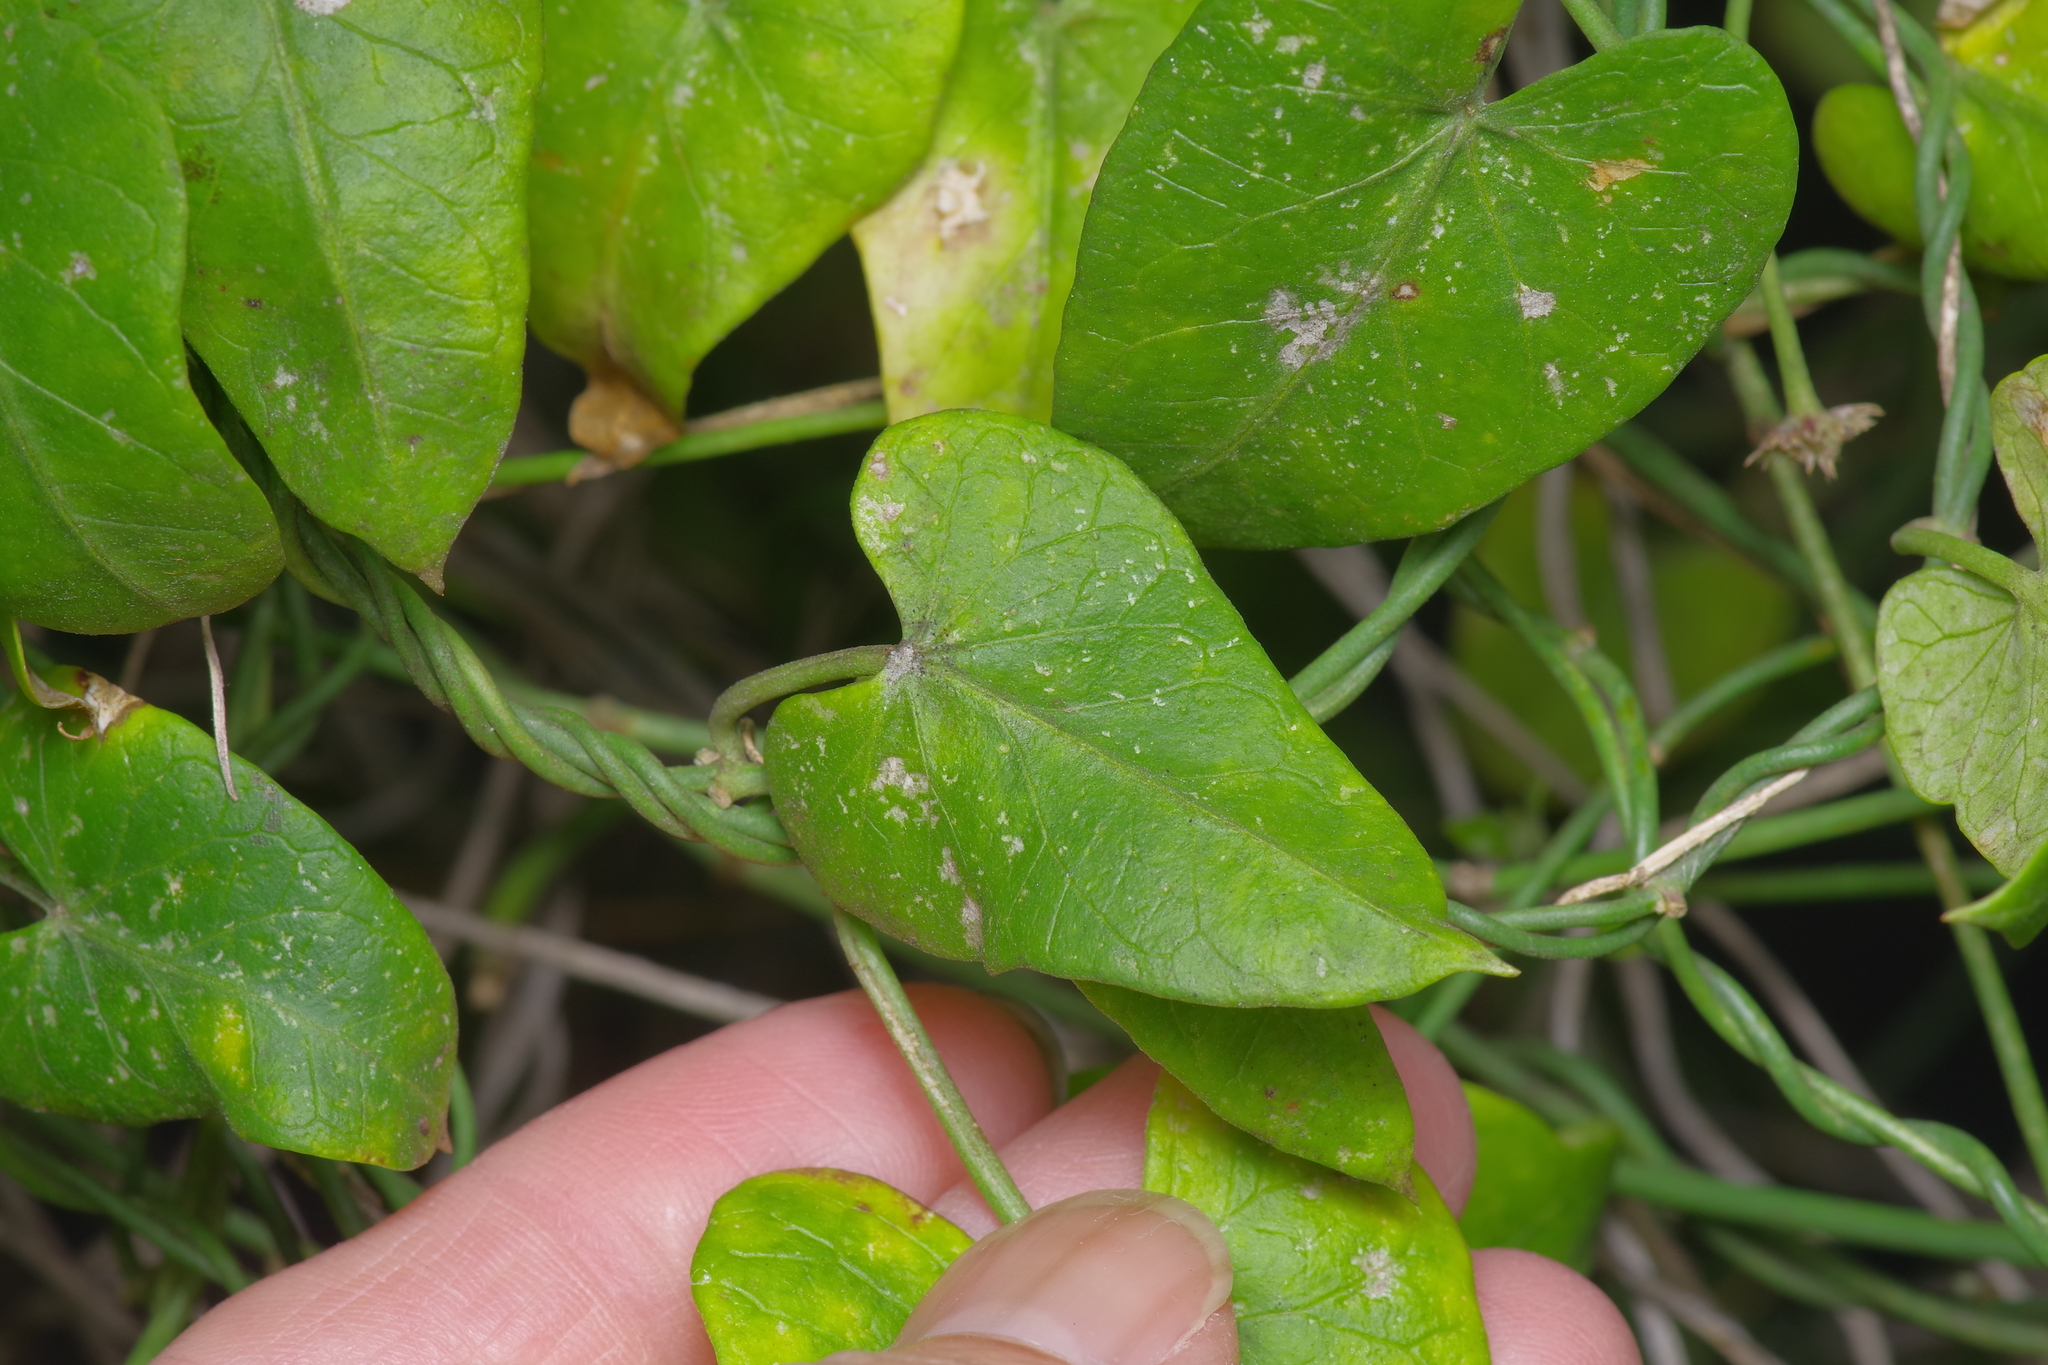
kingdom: Plantae
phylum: Tracheophyta
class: Magnoliopsida
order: Gentianales
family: Apocynaceae
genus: Funastrum
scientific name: Funastrum cynanchoides
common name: Climbing-milkweed
